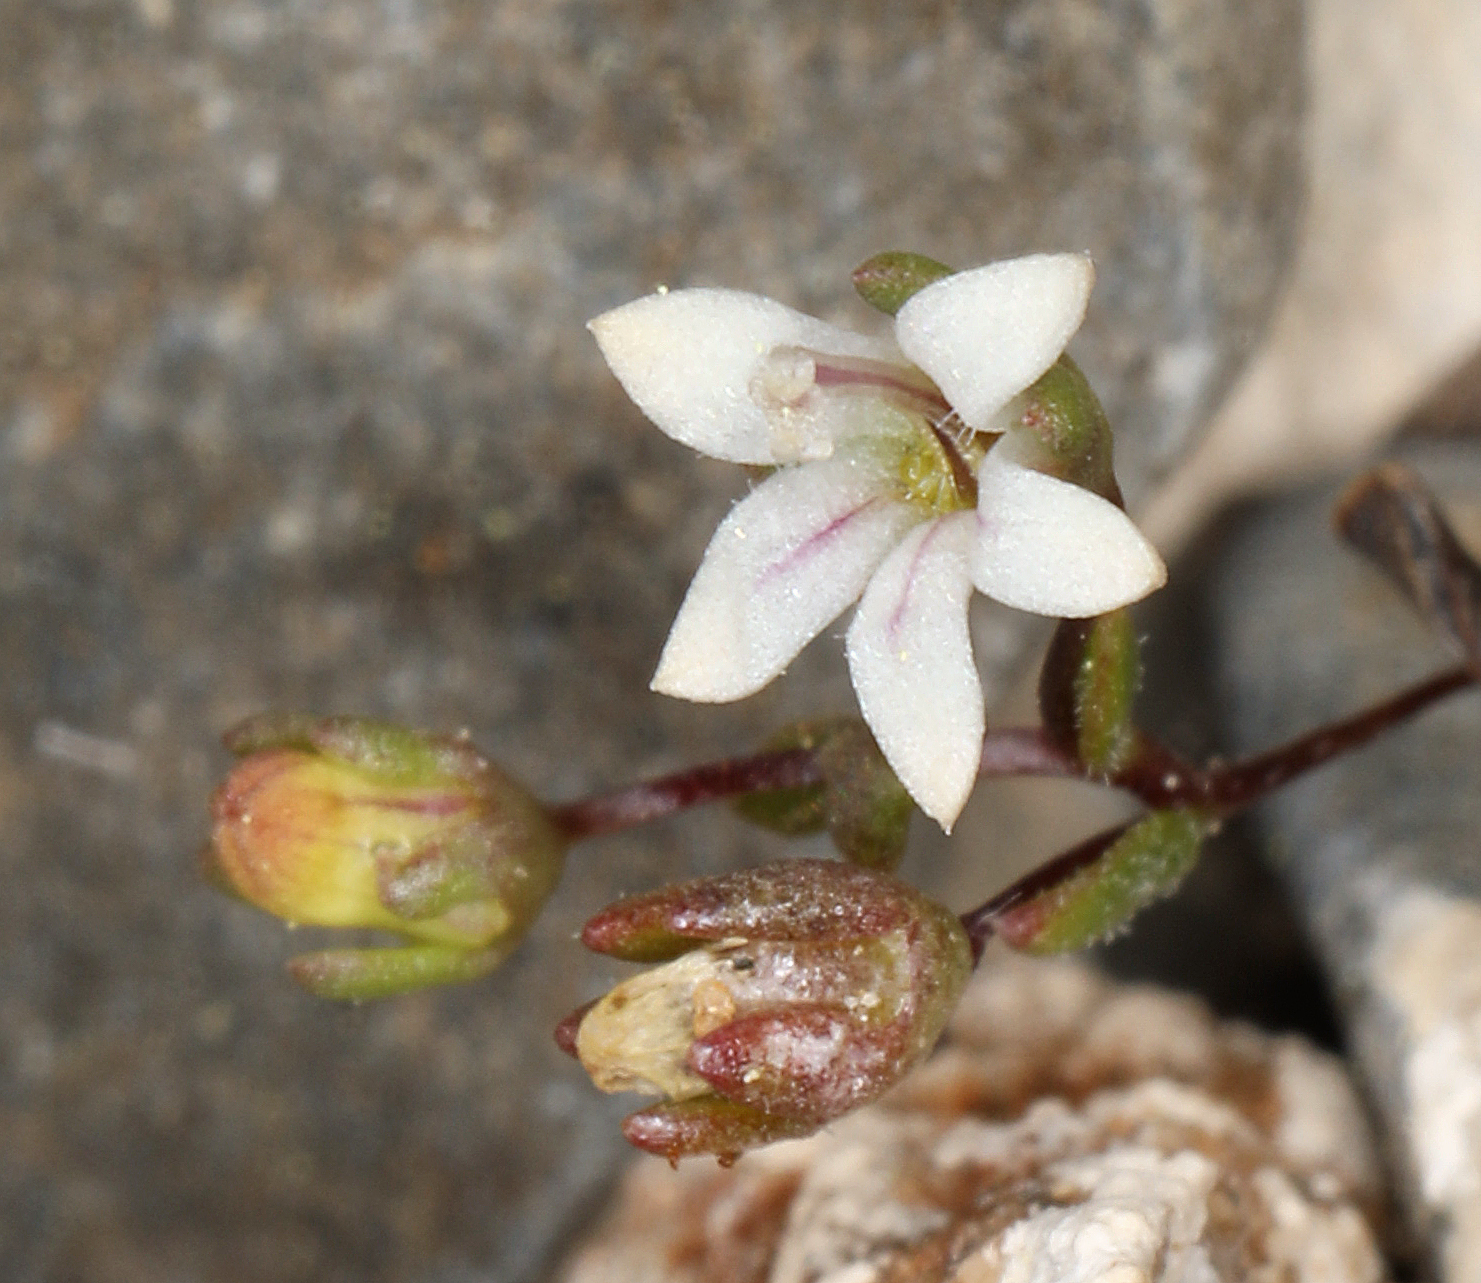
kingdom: Plantae
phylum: Tracheophyta
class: Magnoliopsida
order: Asterales
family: Campanulaceae
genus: Nemacladus
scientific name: Nemacladus inyoensis
